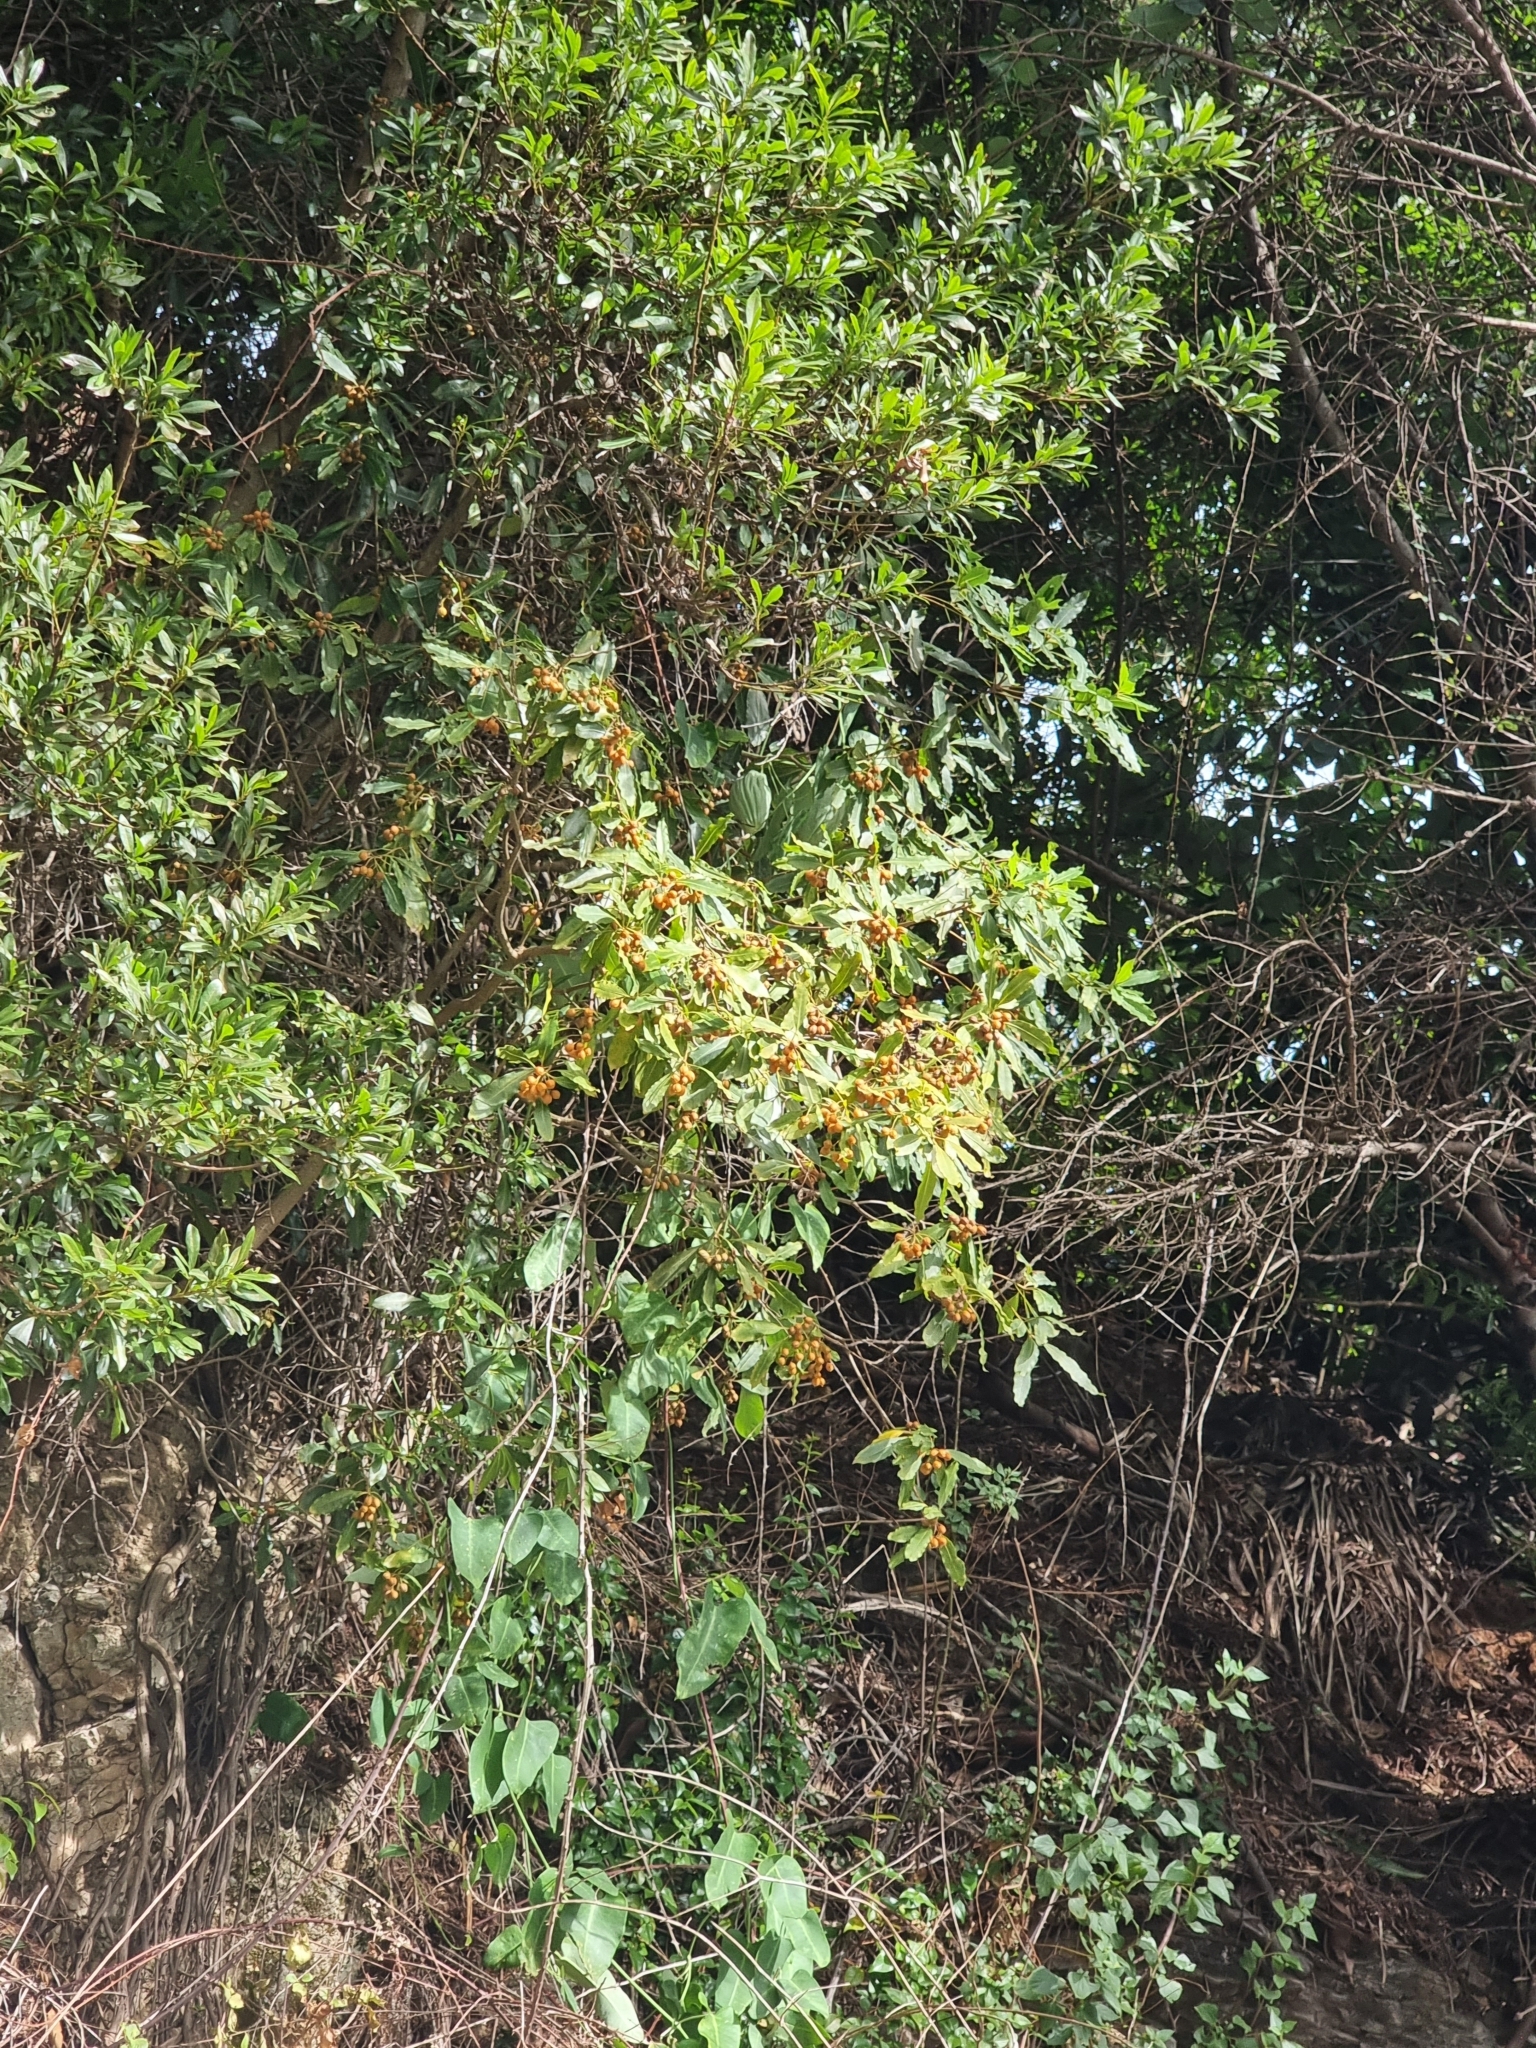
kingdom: Plantae
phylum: Tracheophyta
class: Magnoliopsida
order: Apiales
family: Pittosporaceae
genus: Pittosporum
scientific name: Pittosporum undulatum
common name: Australian cheesewood
